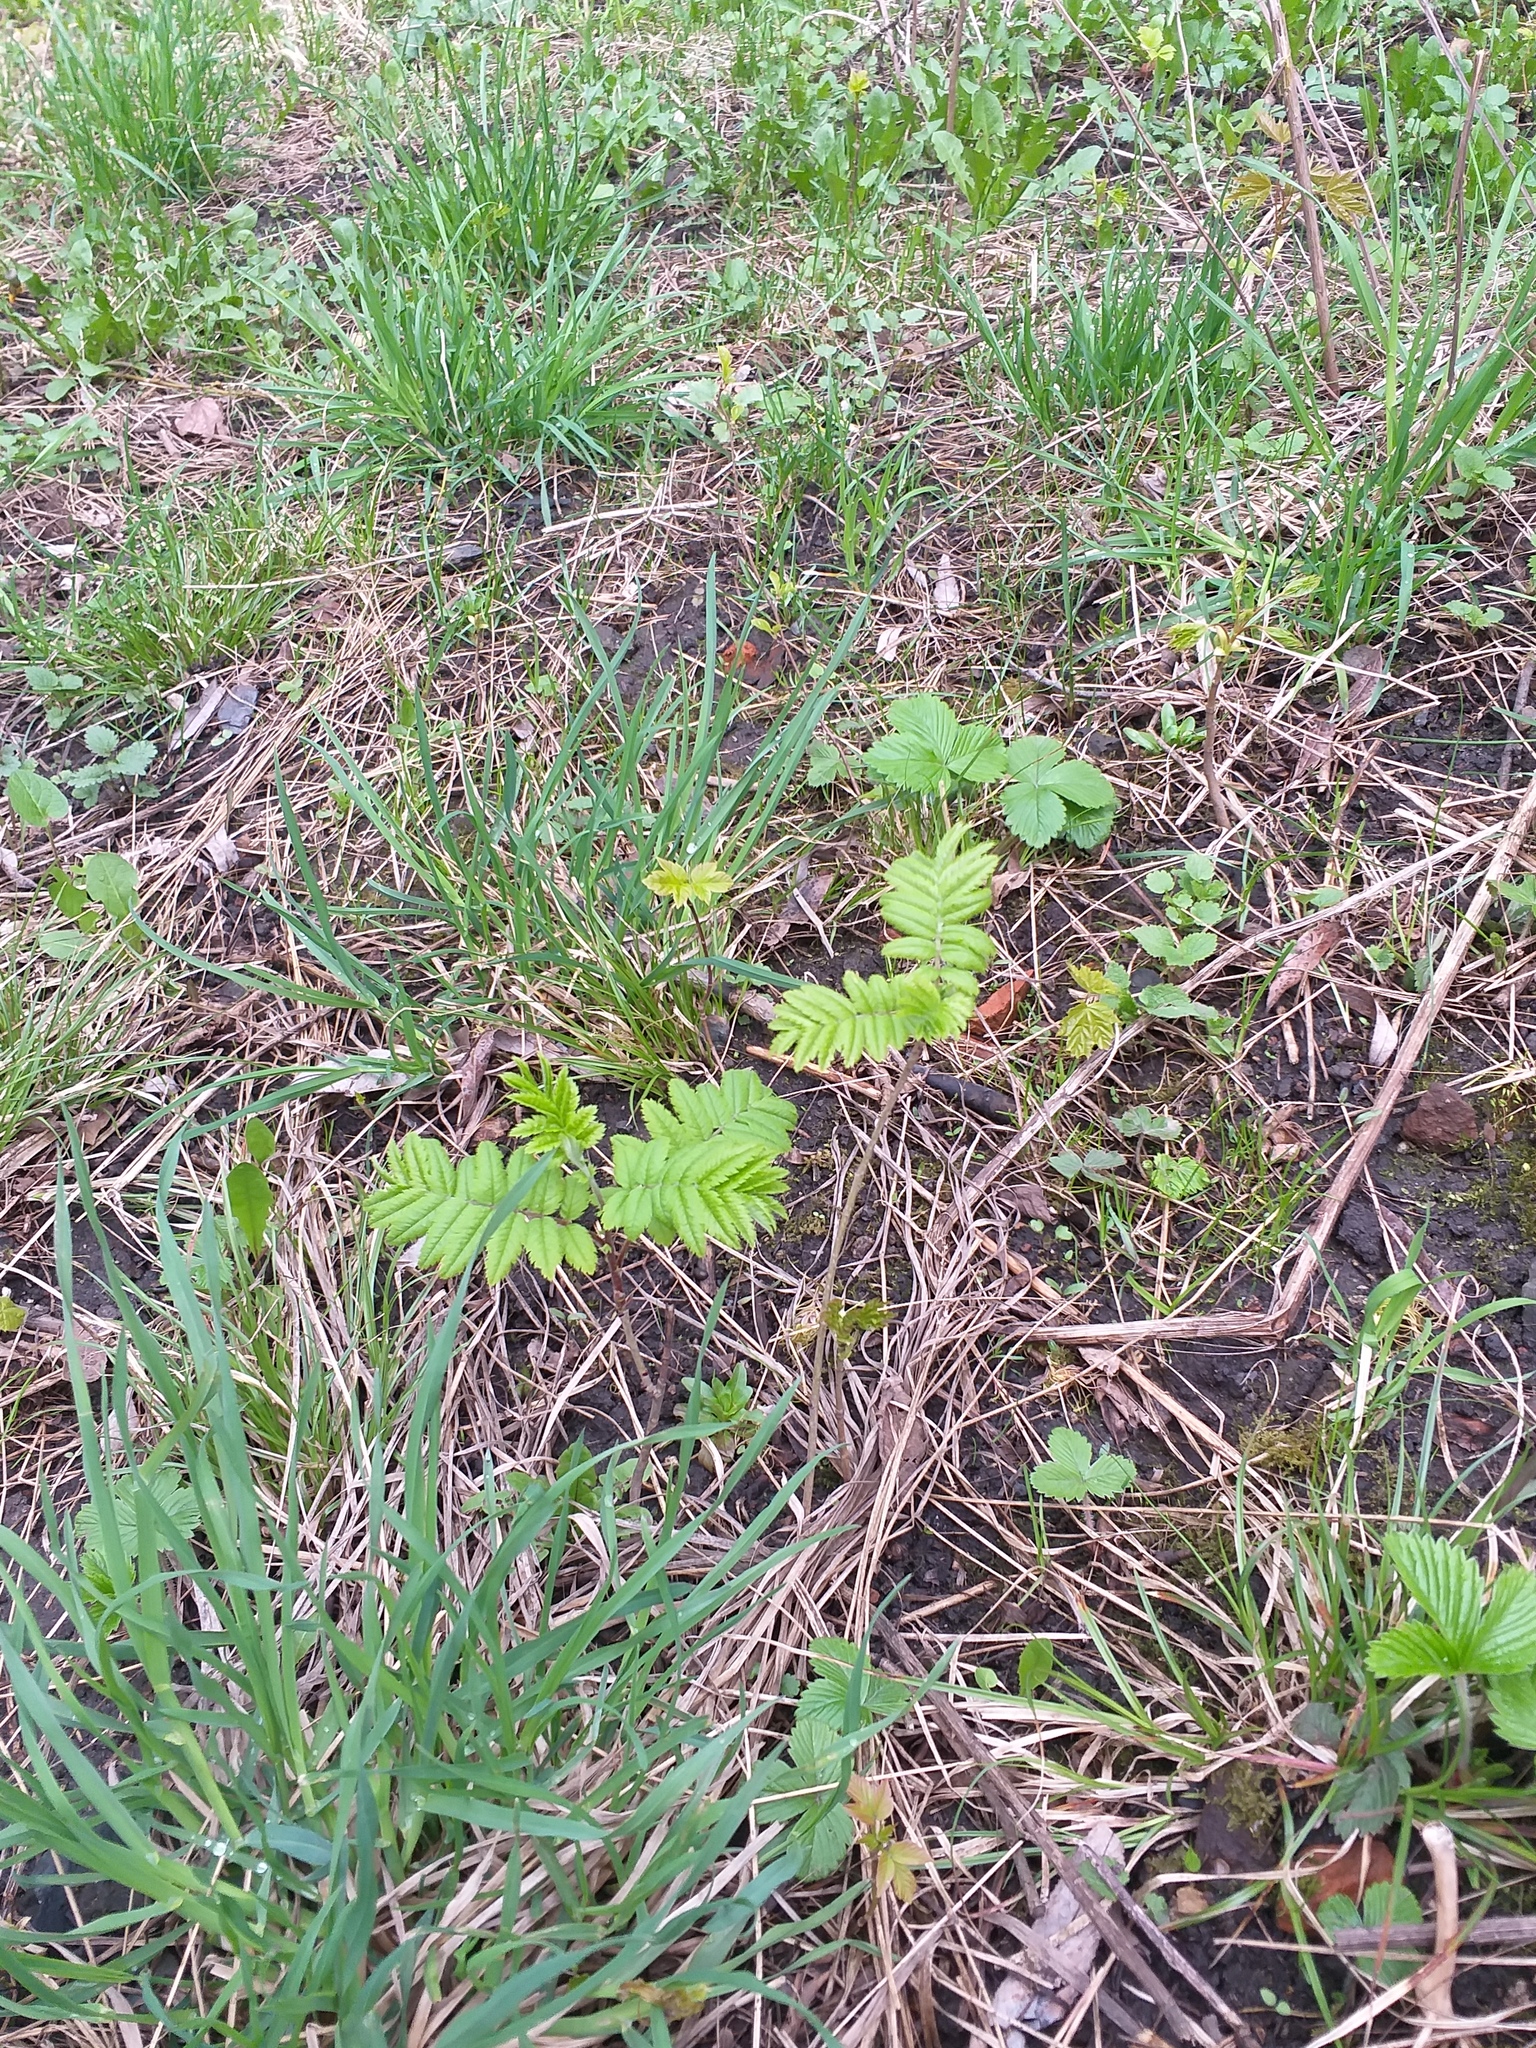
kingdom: Plantae
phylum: Tracheophyta
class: Magnoliopsida
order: Rosales
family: Rosaceae
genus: Sorbus
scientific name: Sorbus aucuparia
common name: Rowan
